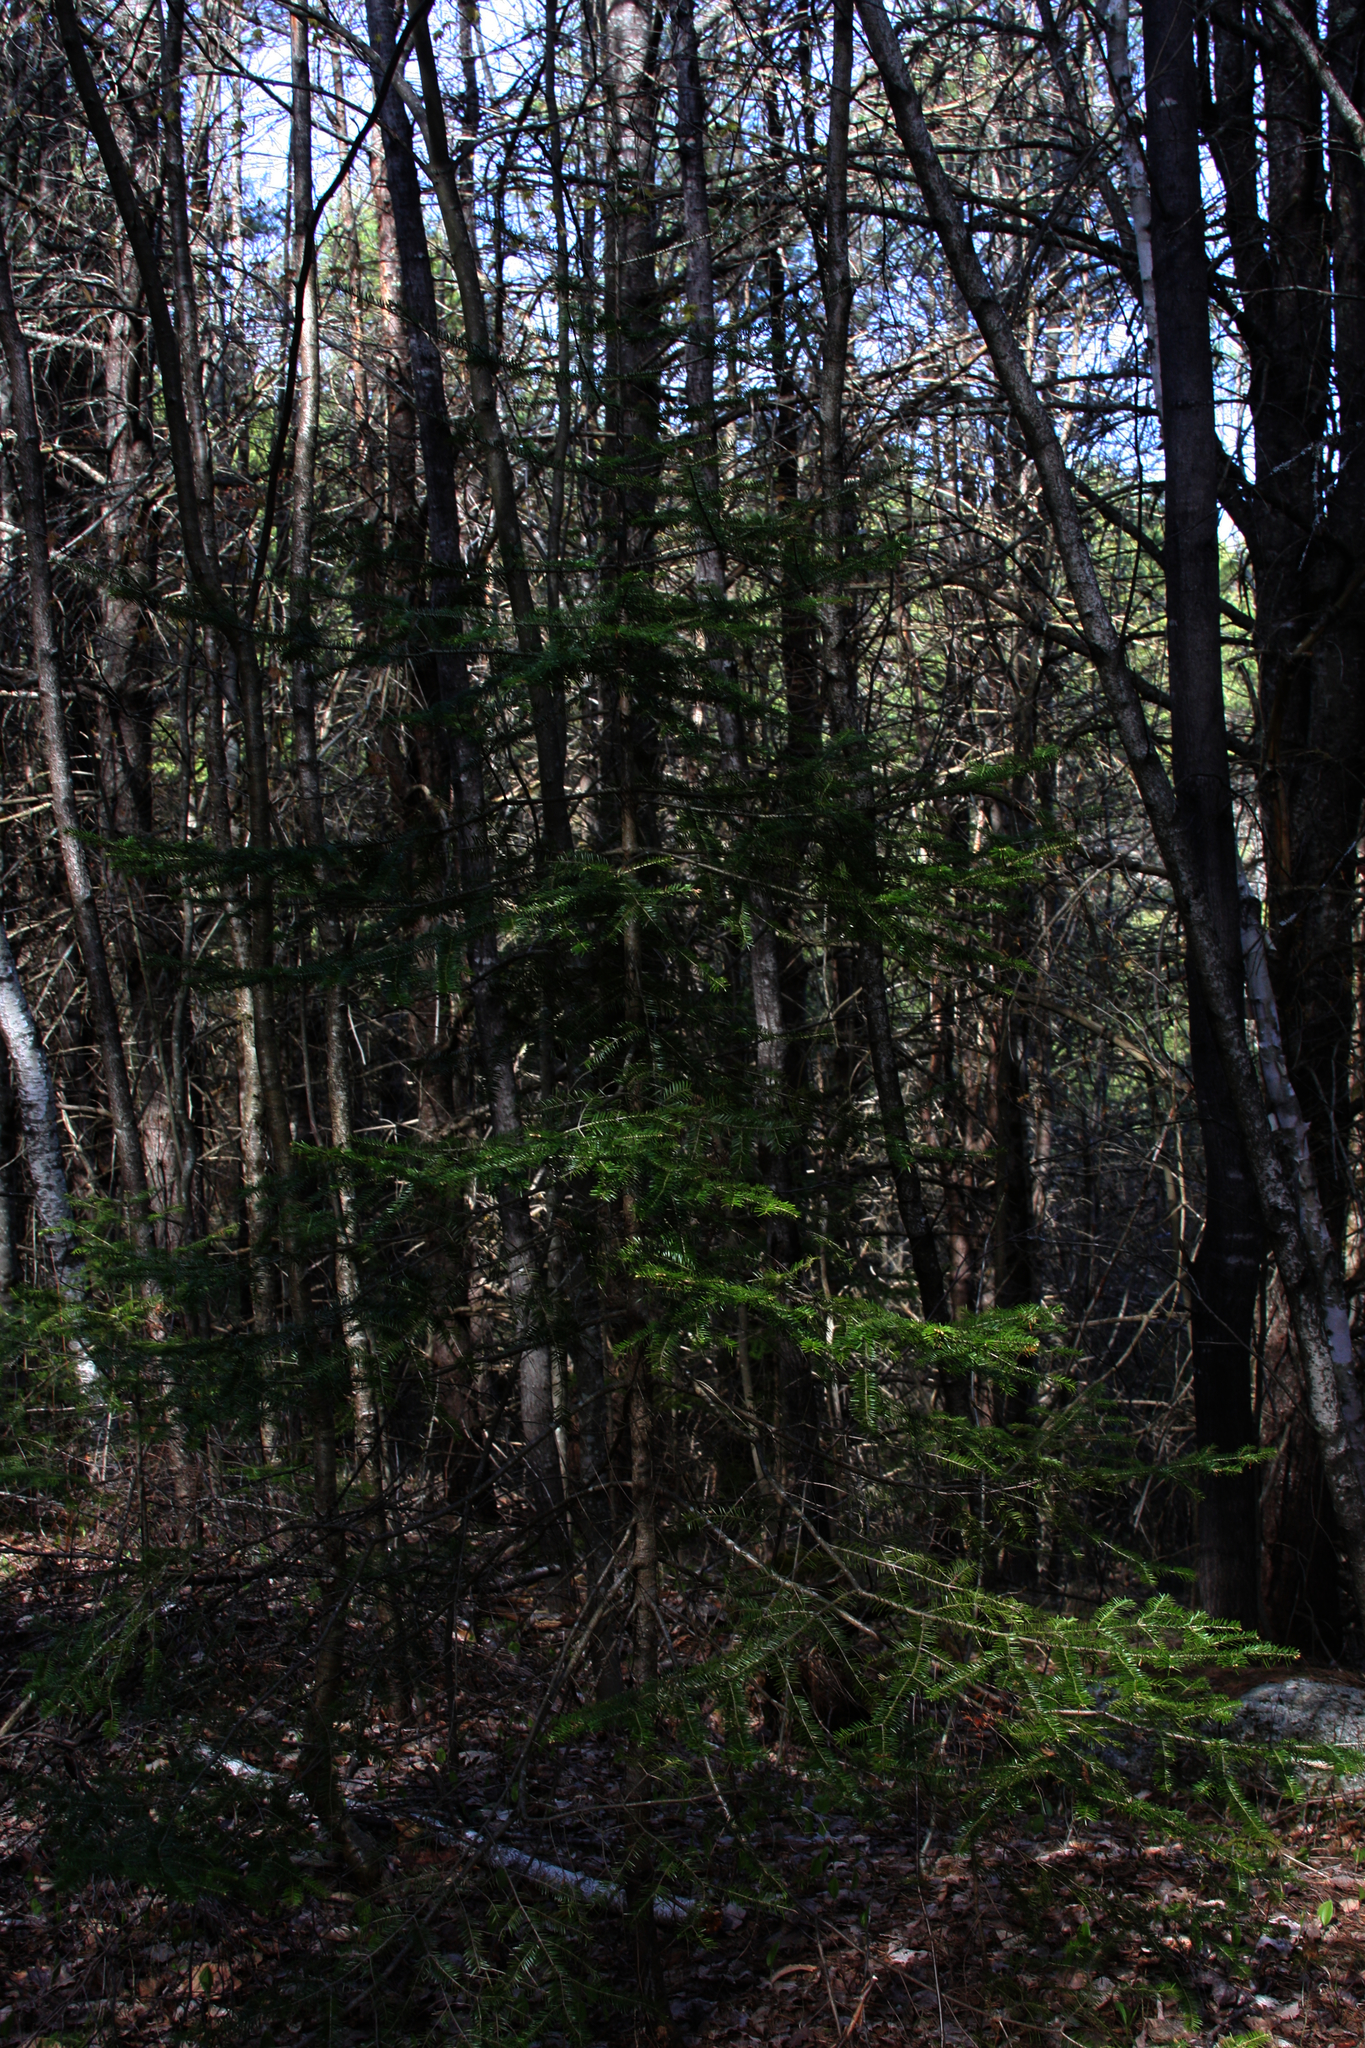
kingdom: Plantae
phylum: Tracheophyta
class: Pinopsida
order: Pinales
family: Pinaceae
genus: Abies
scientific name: Abies balsamea
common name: Balsam fir
